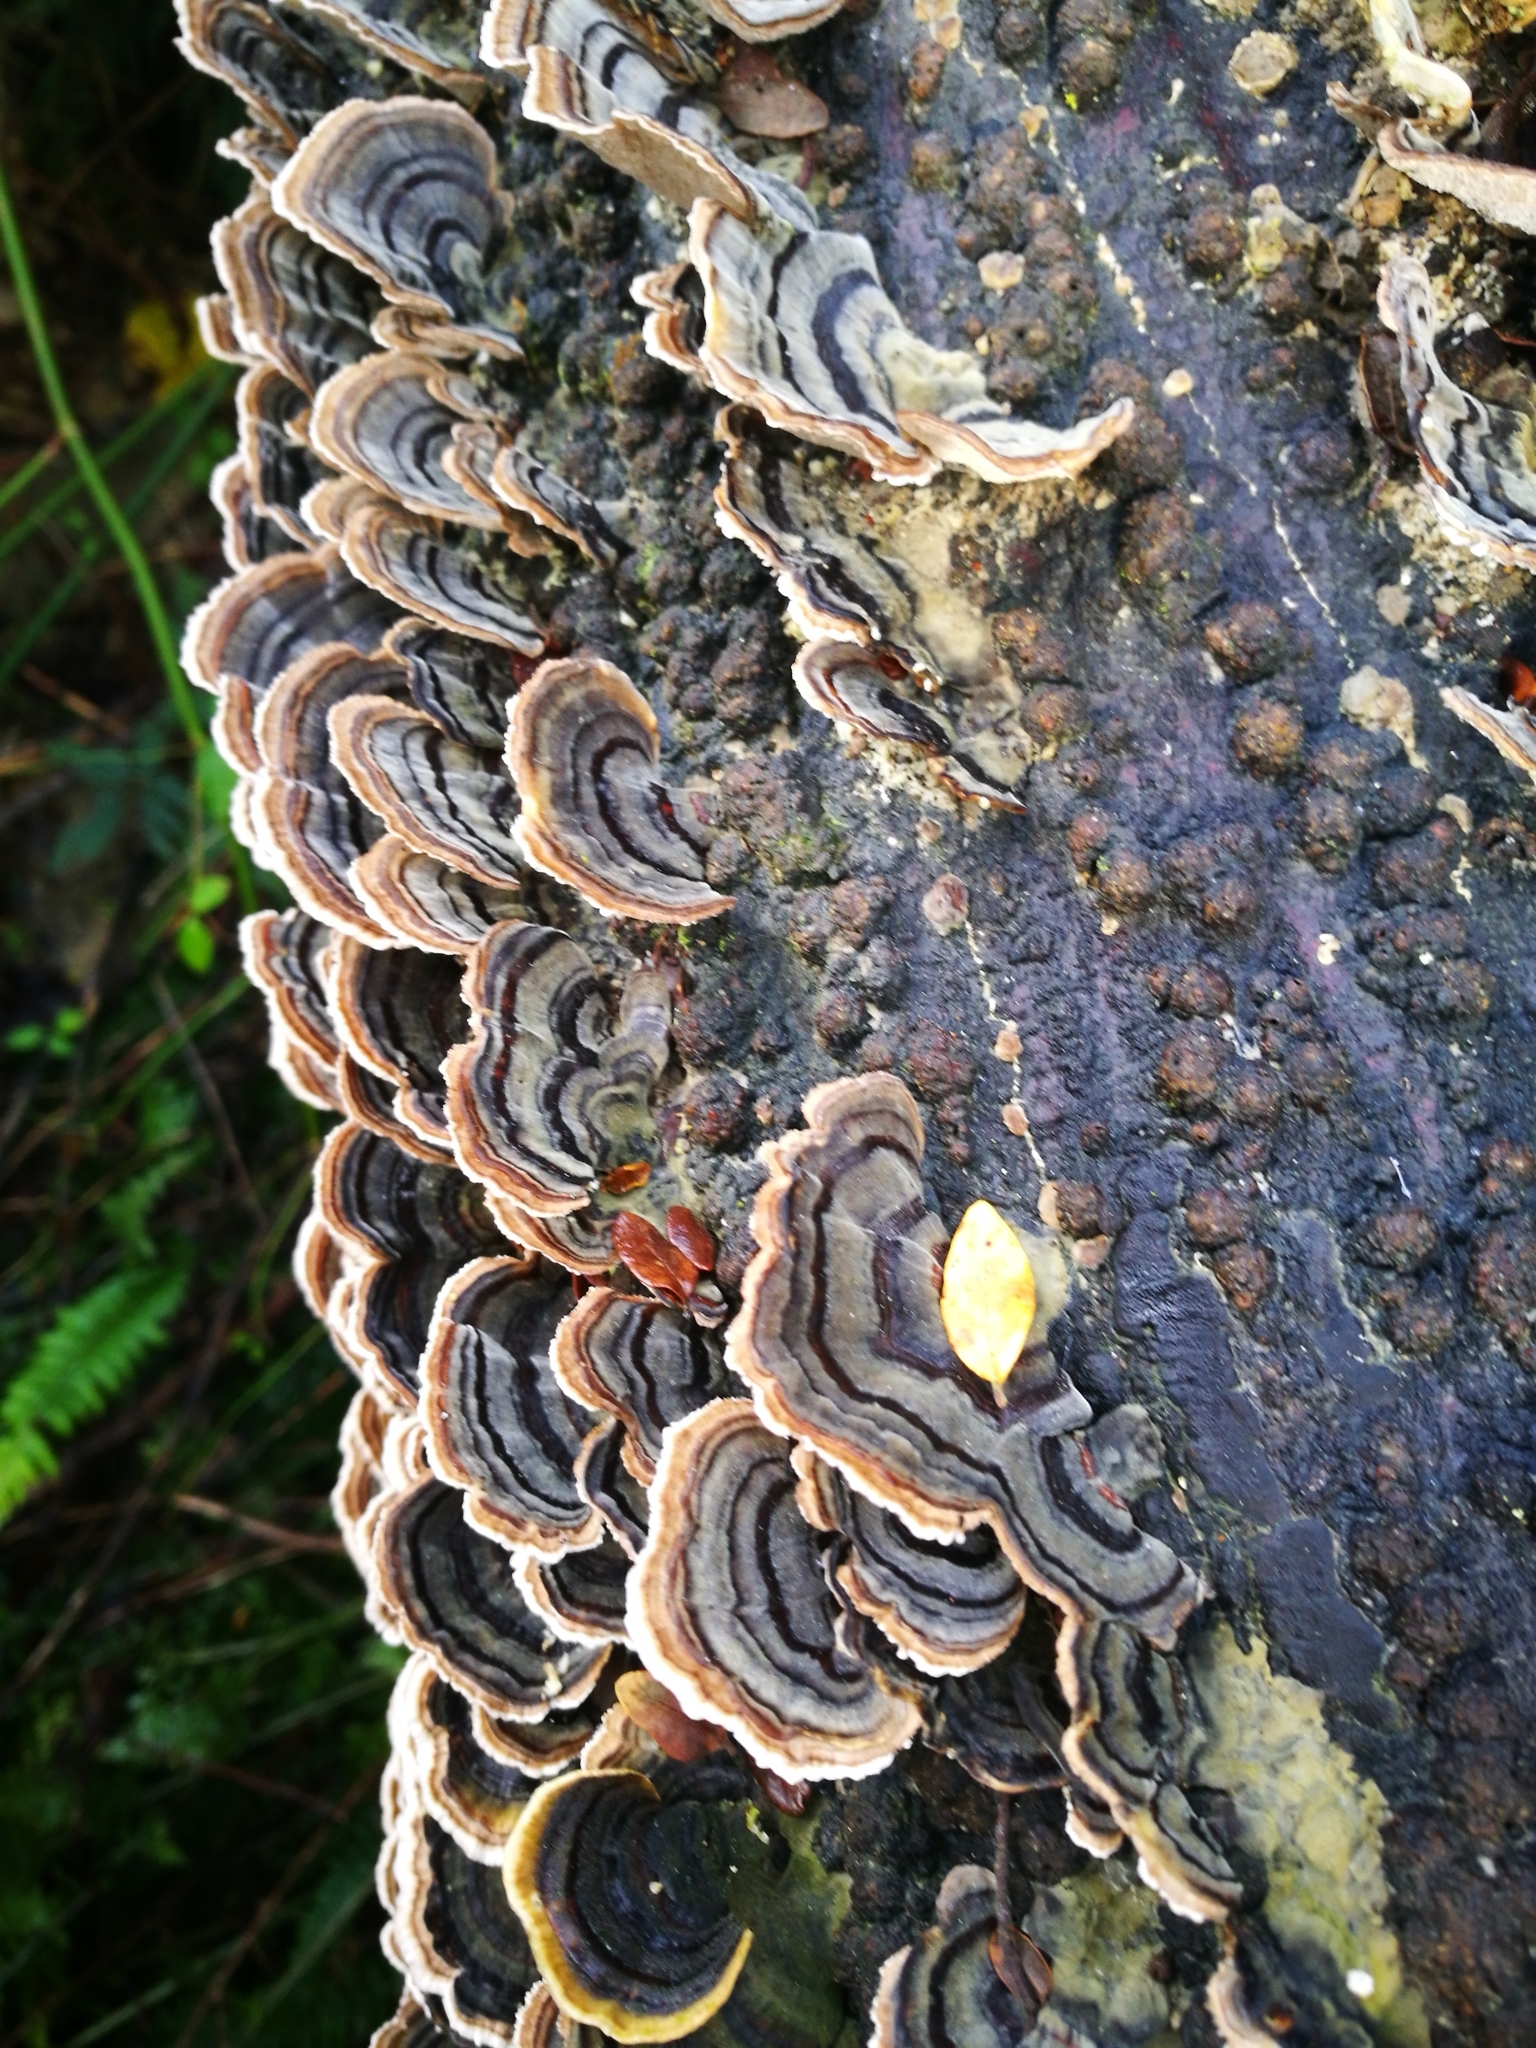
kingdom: Fungi
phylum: Basidiomycota
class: Agaricomycetes
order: Polyporales
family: Polyporaceae
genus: Trametes
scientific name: Trametes versicolor
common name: Turkeytail
